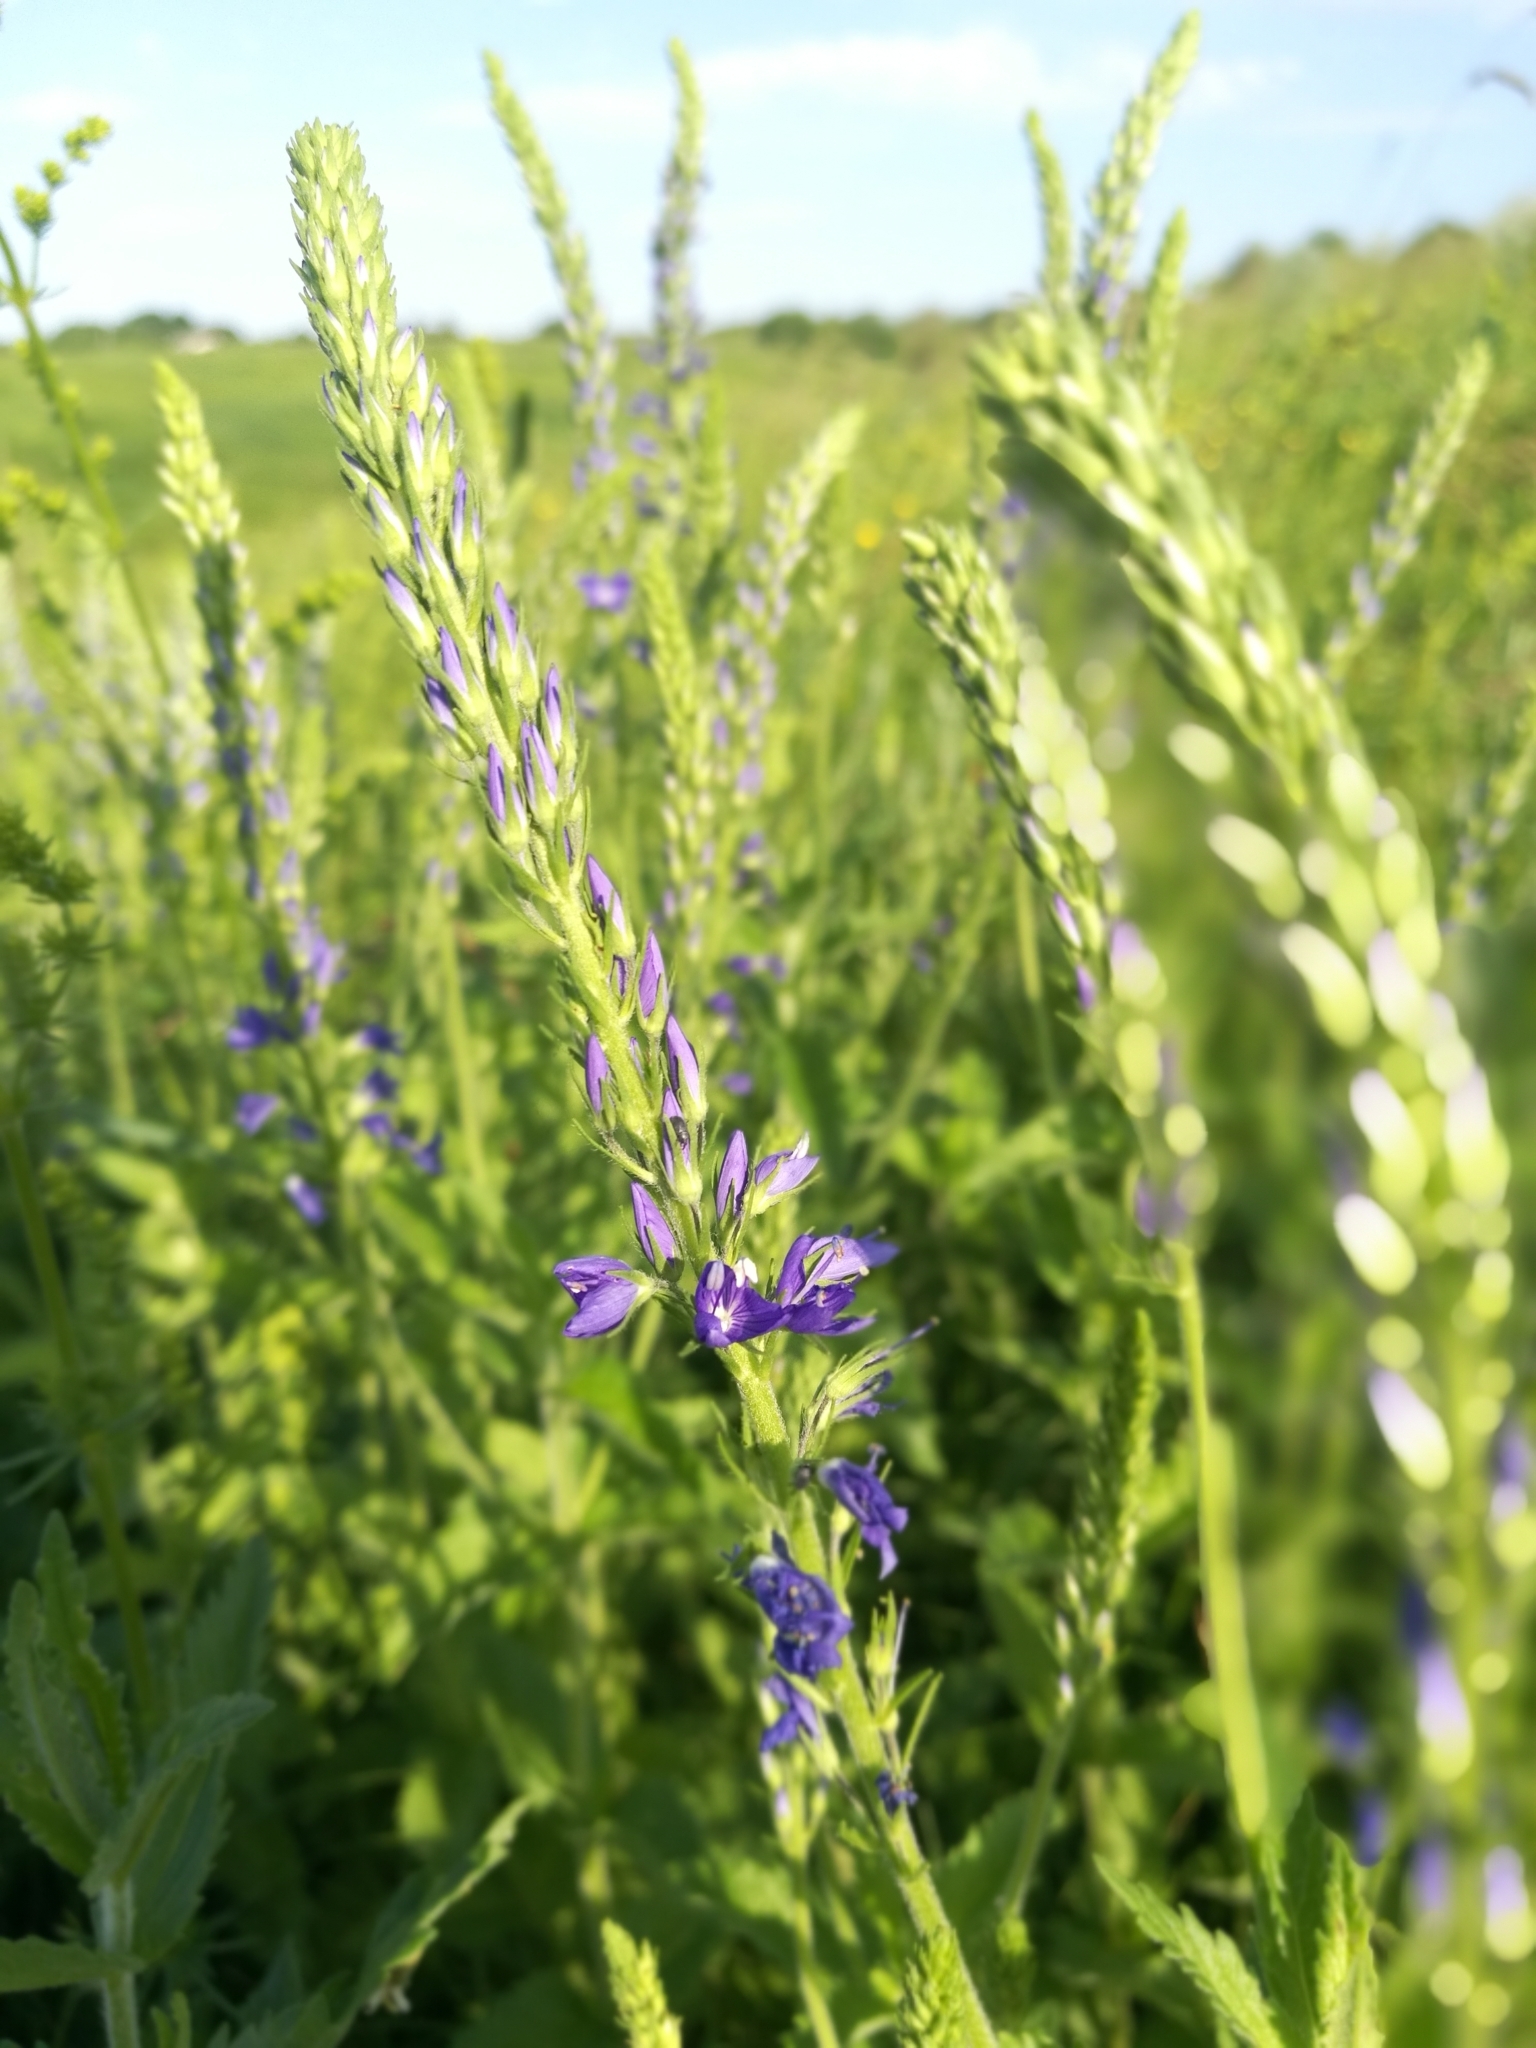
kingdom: Plantae
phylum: Tracheophyta
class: Magnoliopsida
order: Lamiales
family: Plantaginaceae
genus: Veronica
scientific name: Veronica teucrium
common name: Large speedwell
